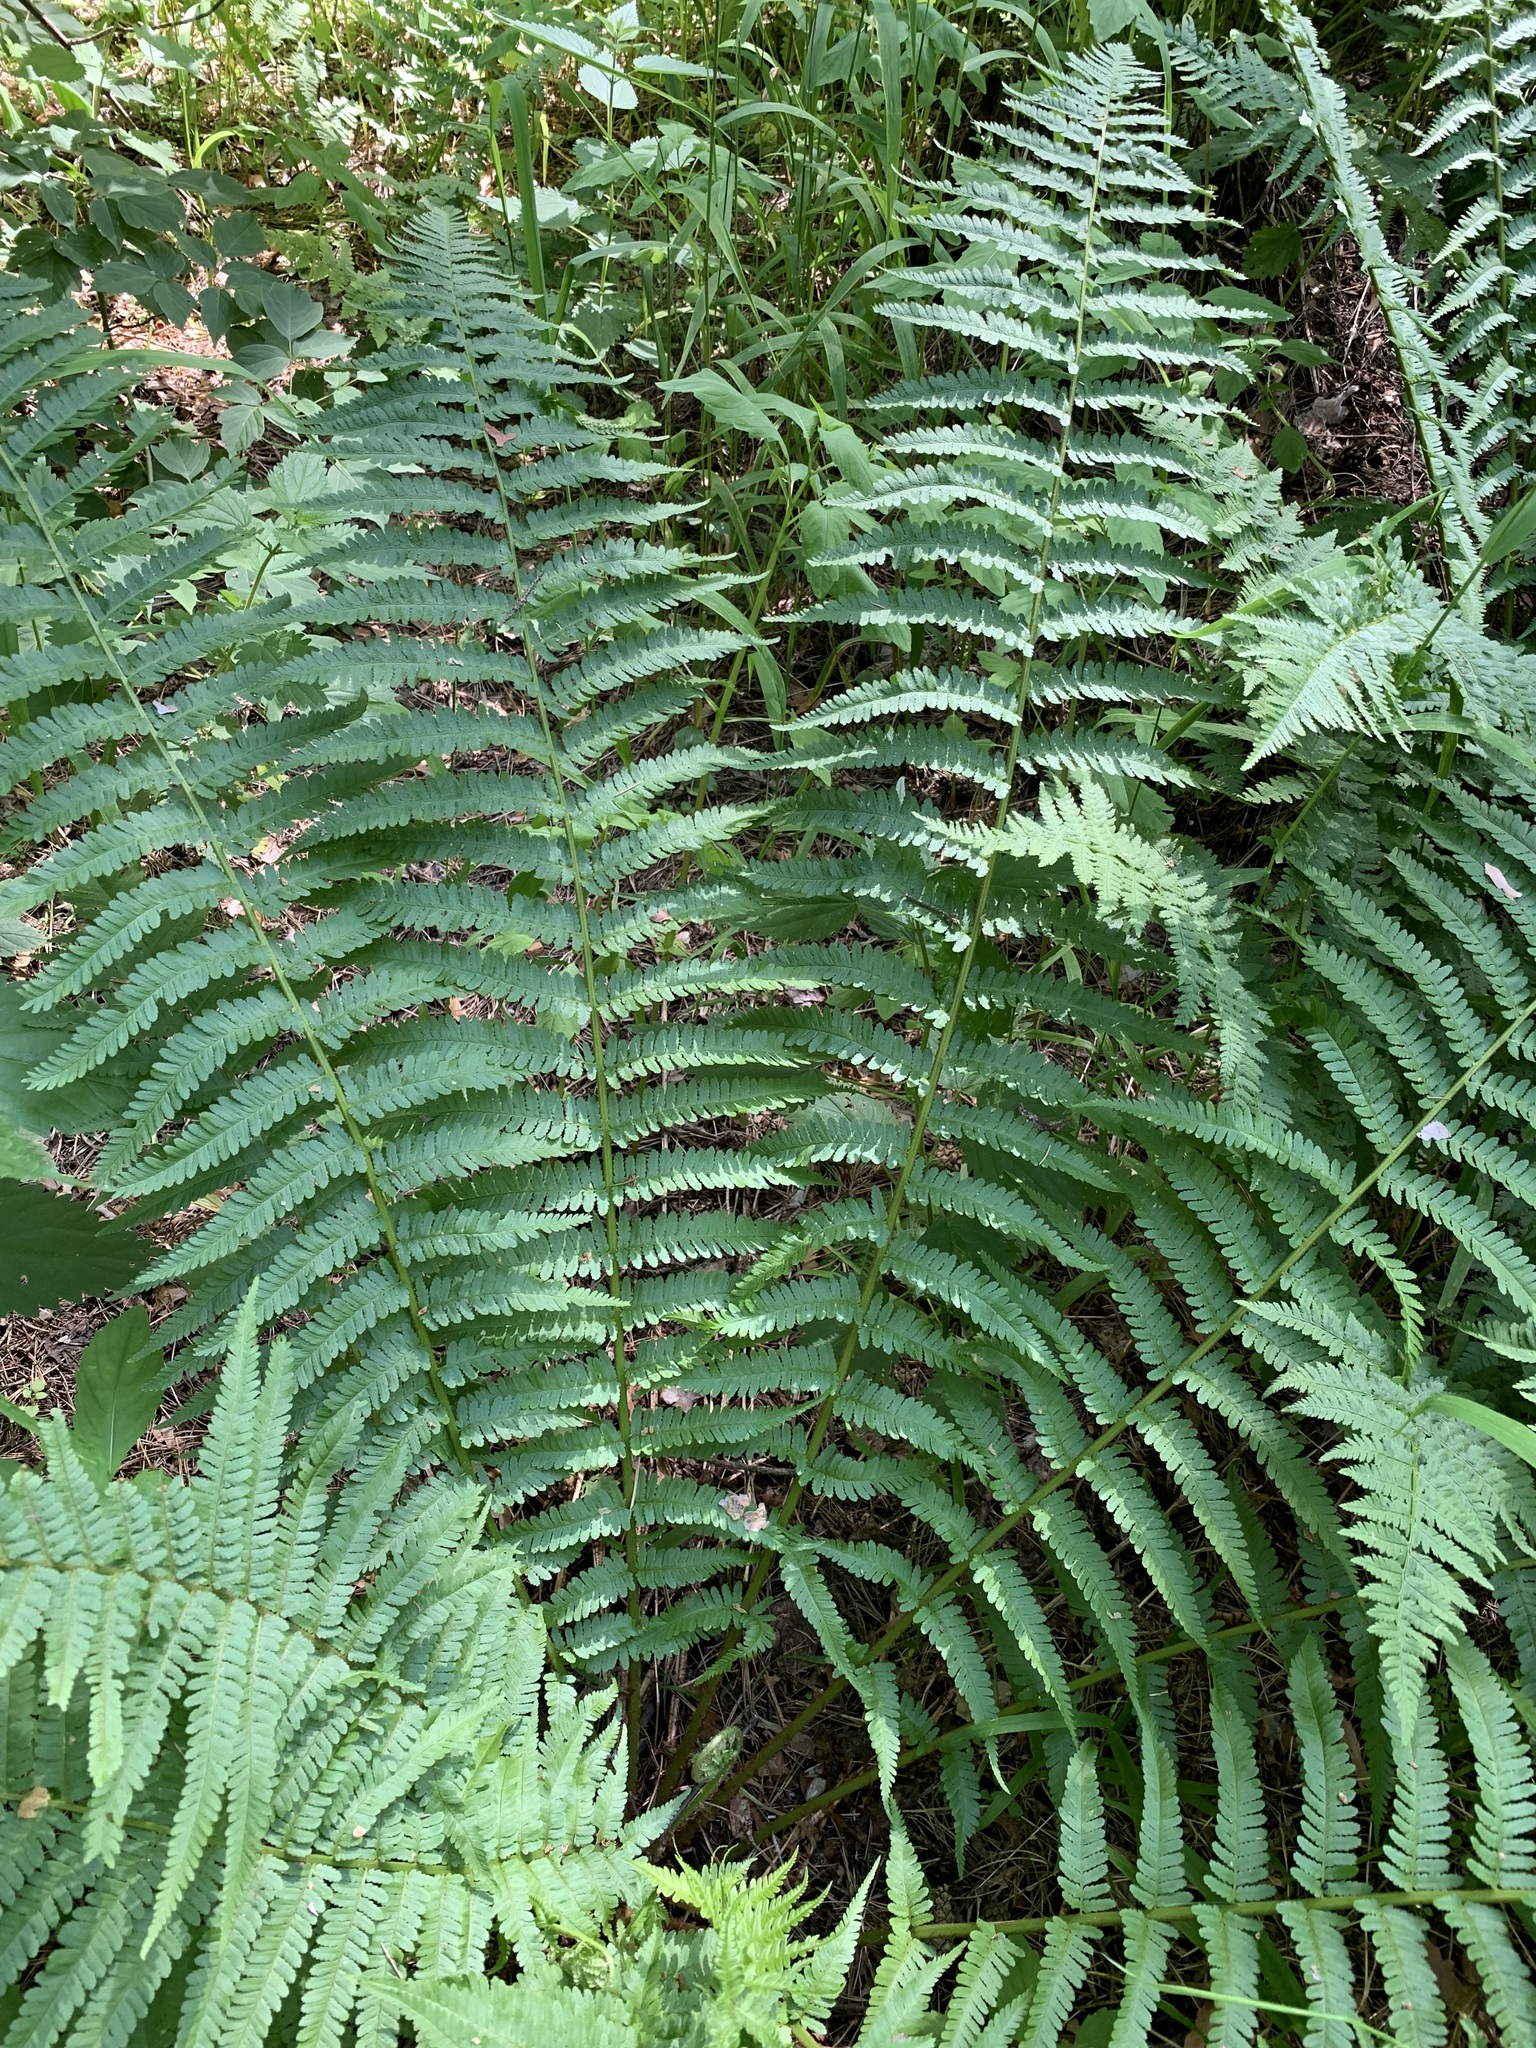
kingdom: Plantae
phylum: Tracheophyta
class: Polypodiopsida
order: Polypodiales
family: Dryopteridaceae
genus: Dryopteris
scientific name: Dryopteris filix-mas
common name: Male fern
